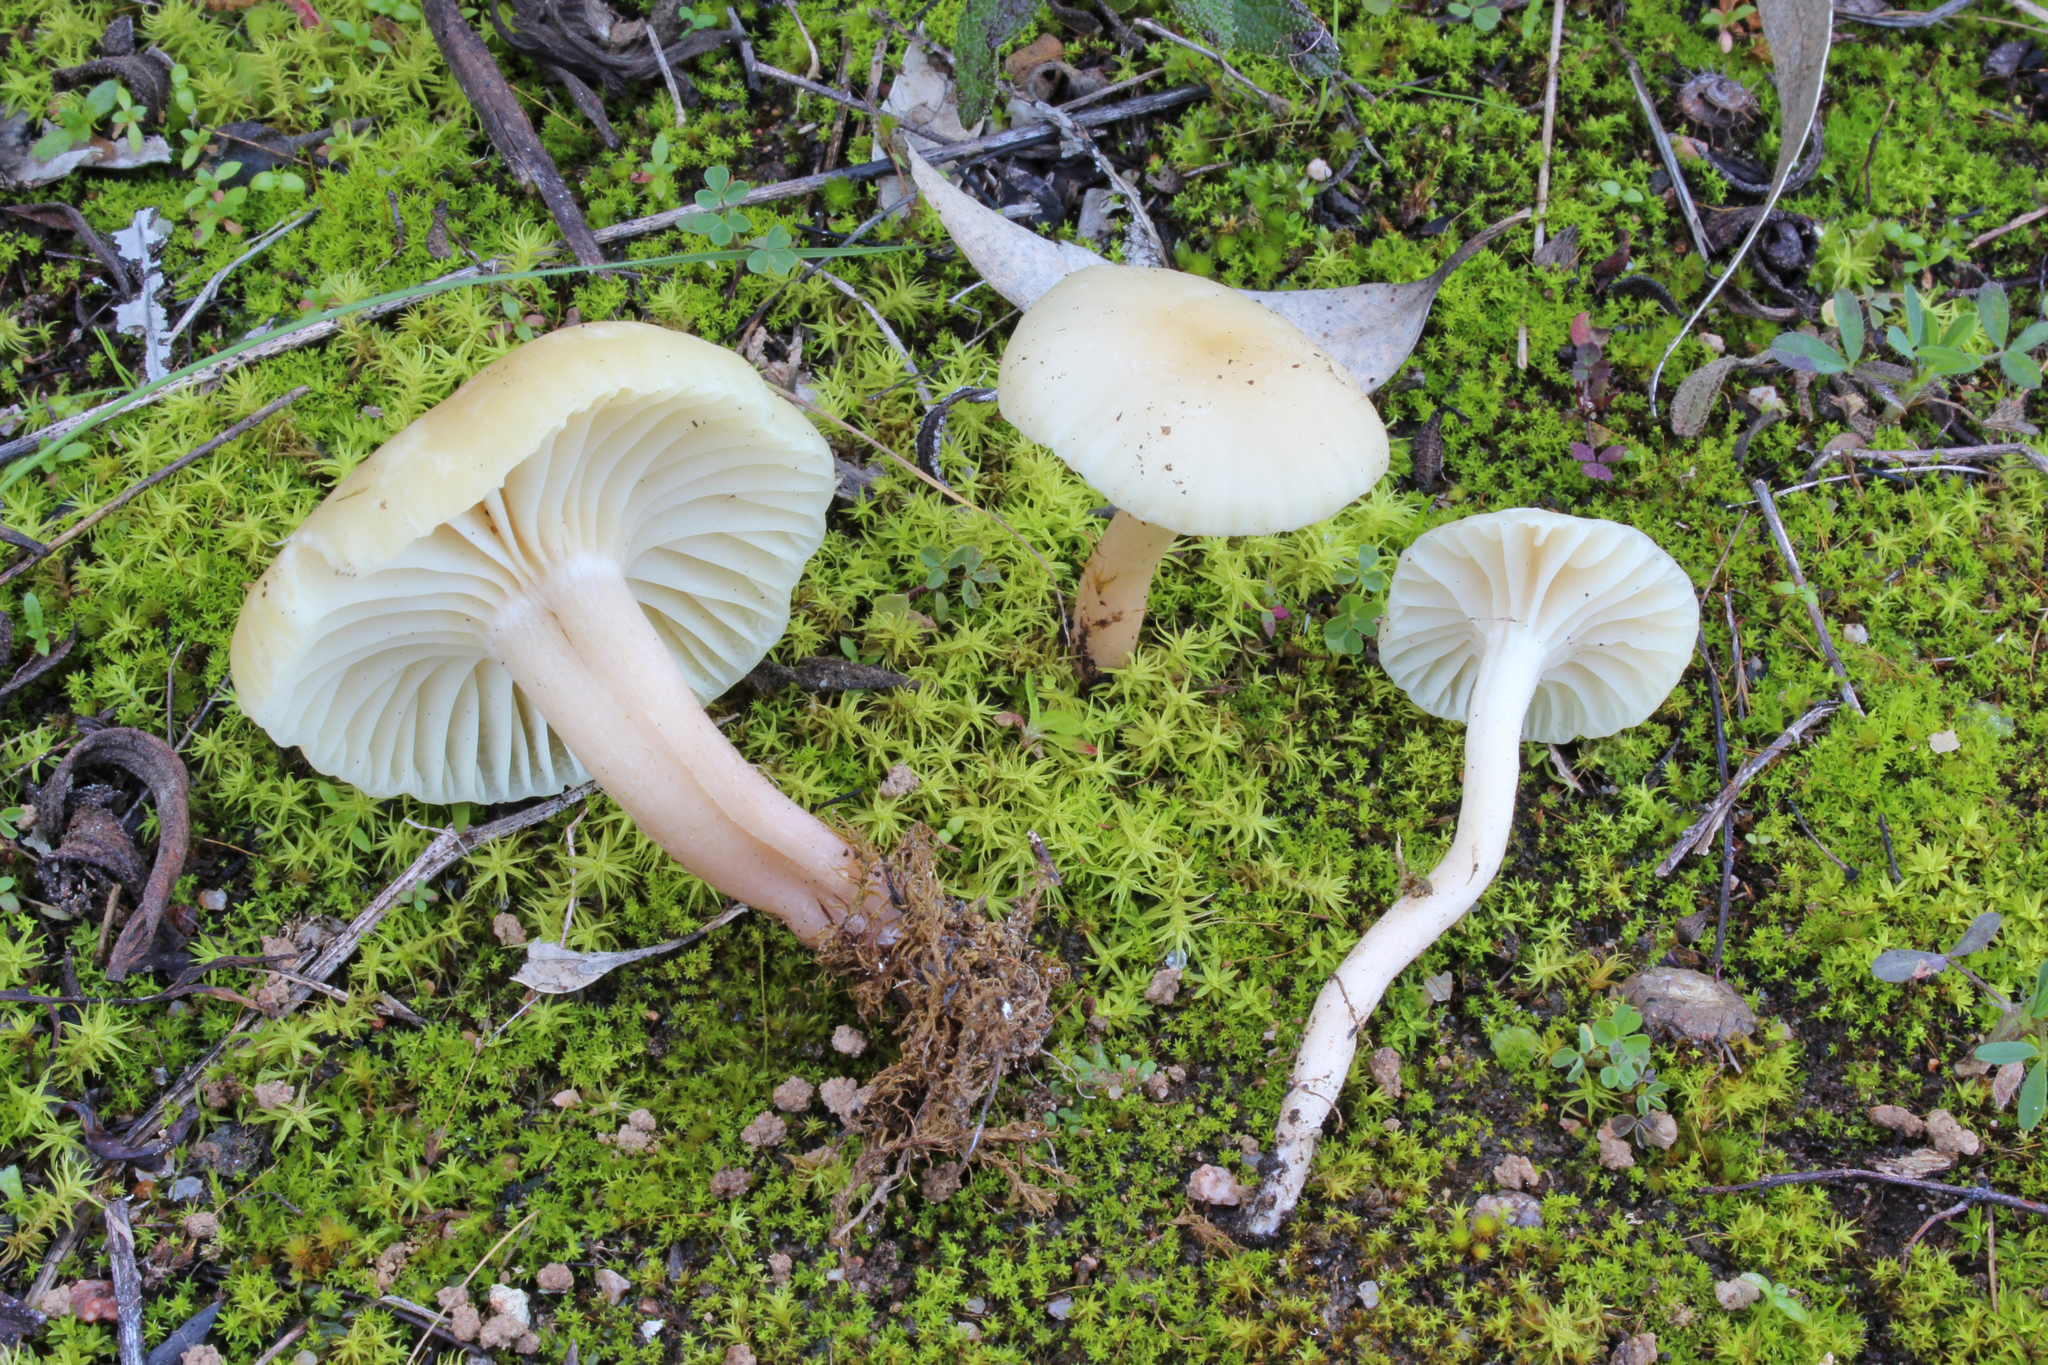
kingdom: Fungi
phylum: Basidiomycota
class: Agaricomycetes
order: Agaricales
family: Hygrophoraceae
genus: Cuphophyllus
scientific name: Cuphophyllus russocoriaceus
